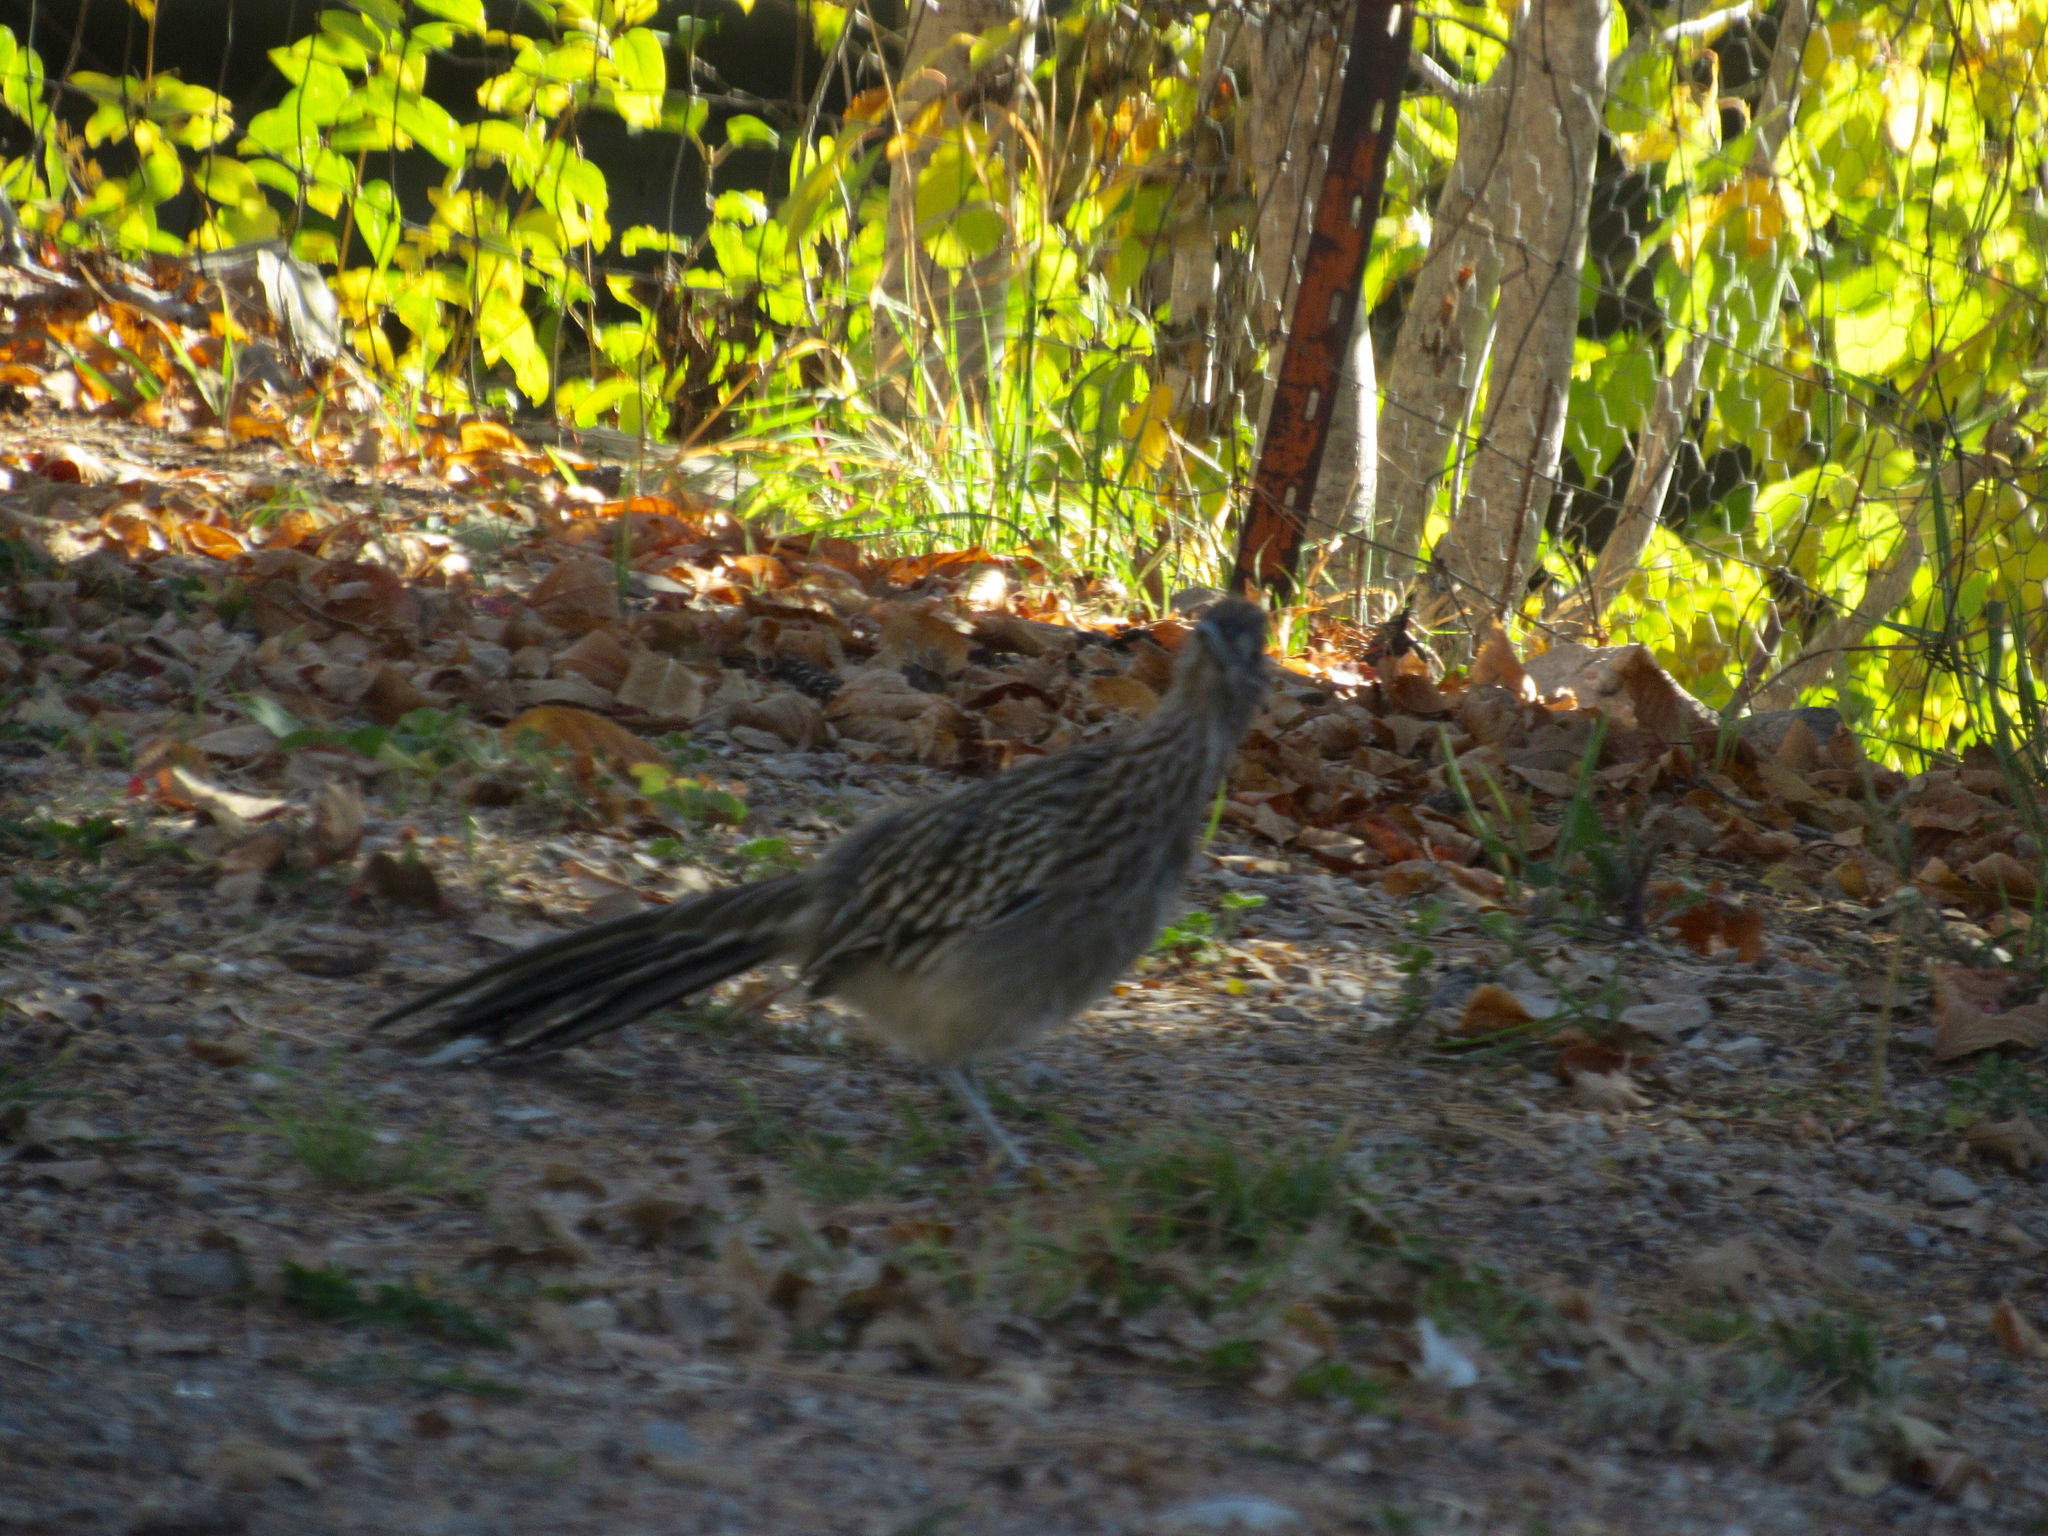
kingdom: Animalia
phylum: Chordata
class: Aves
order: Cuculiformes
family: Cuculidae
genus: Geococcyx
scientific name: Geococcyx californianus
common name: Greater roadrunner
